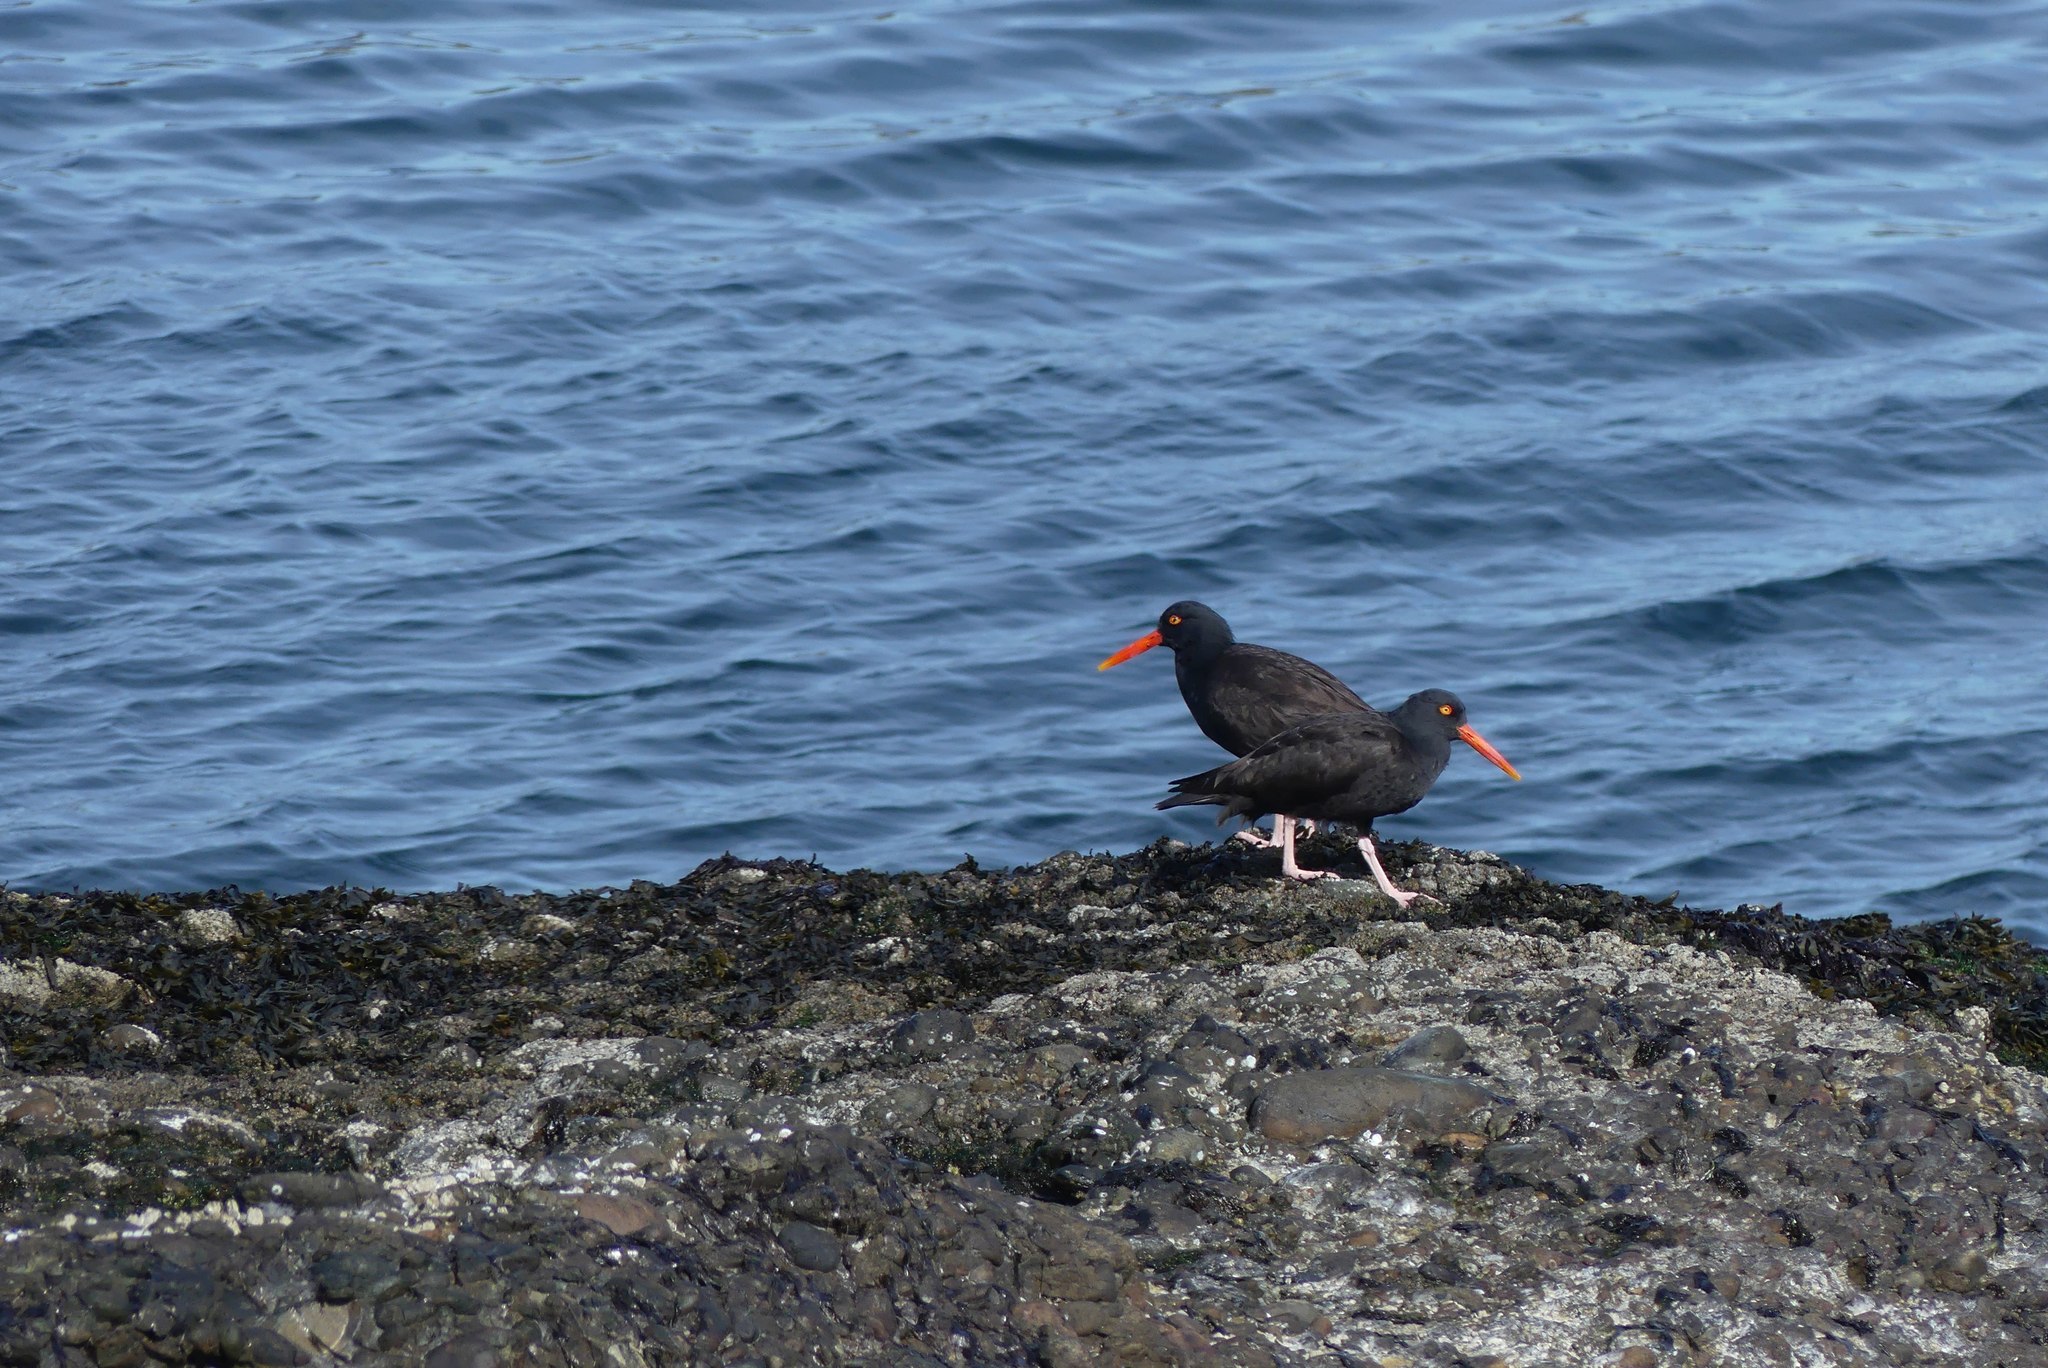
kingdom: Animalia
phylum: Chordata
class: Aves
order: Charadriiformes
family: Haematopodidae
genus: Haematopus
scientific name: Haematopus bachmani
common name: Black oystercatcher
